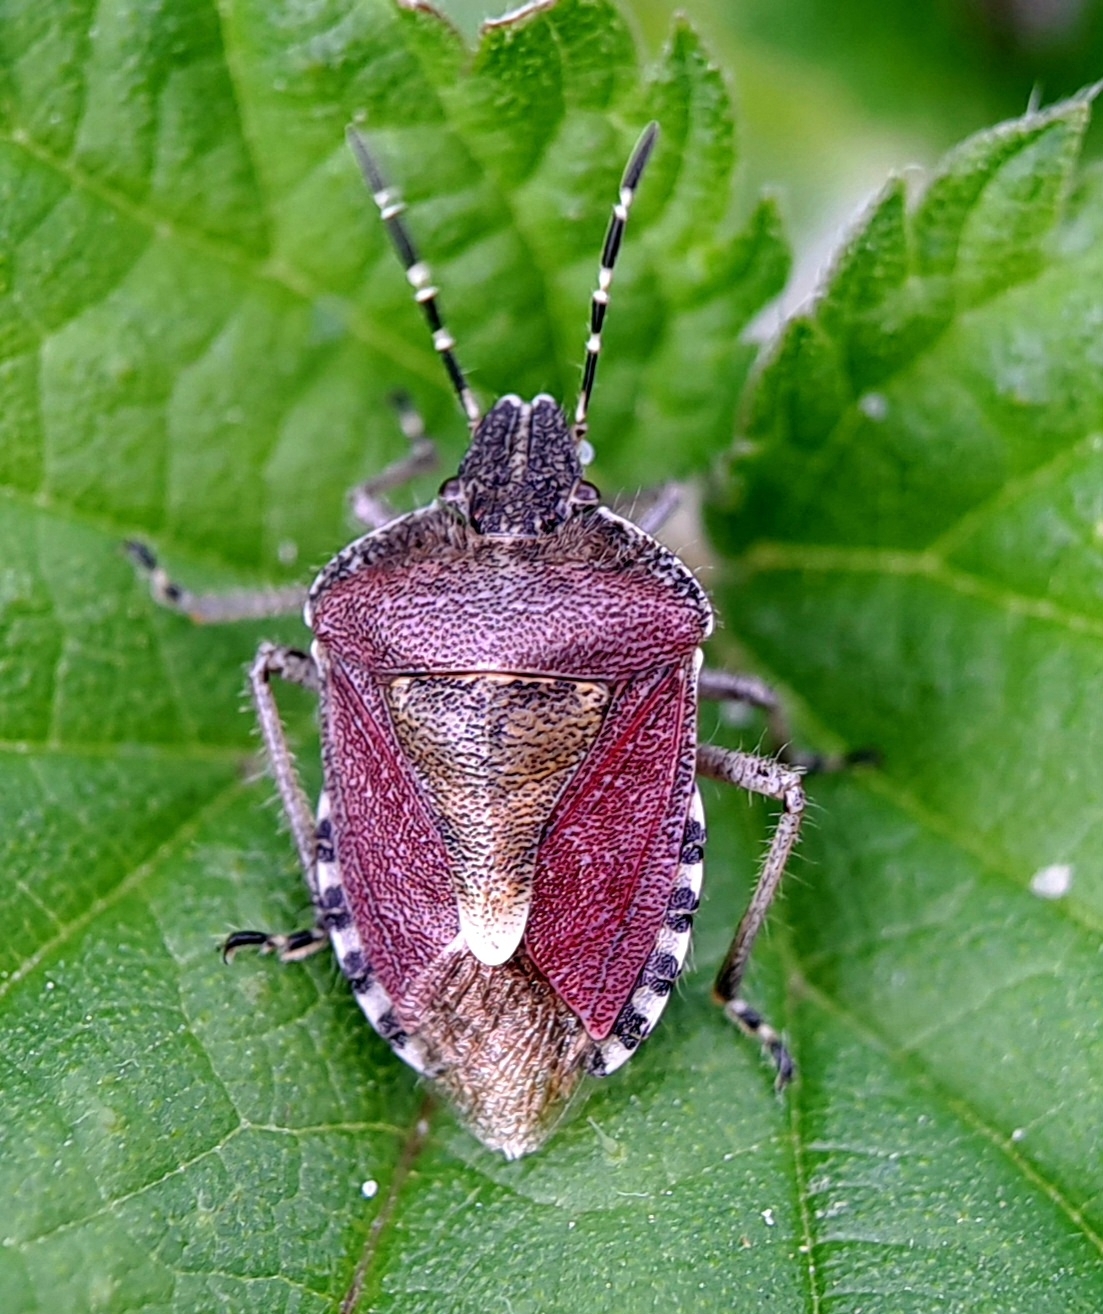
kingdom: Animalia
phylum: Arthropoda
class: Insecta
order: Hemiptera
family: Pentatomidae
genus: Dolycoris
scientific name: Dolycoris baccarum
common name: Sloe bug
